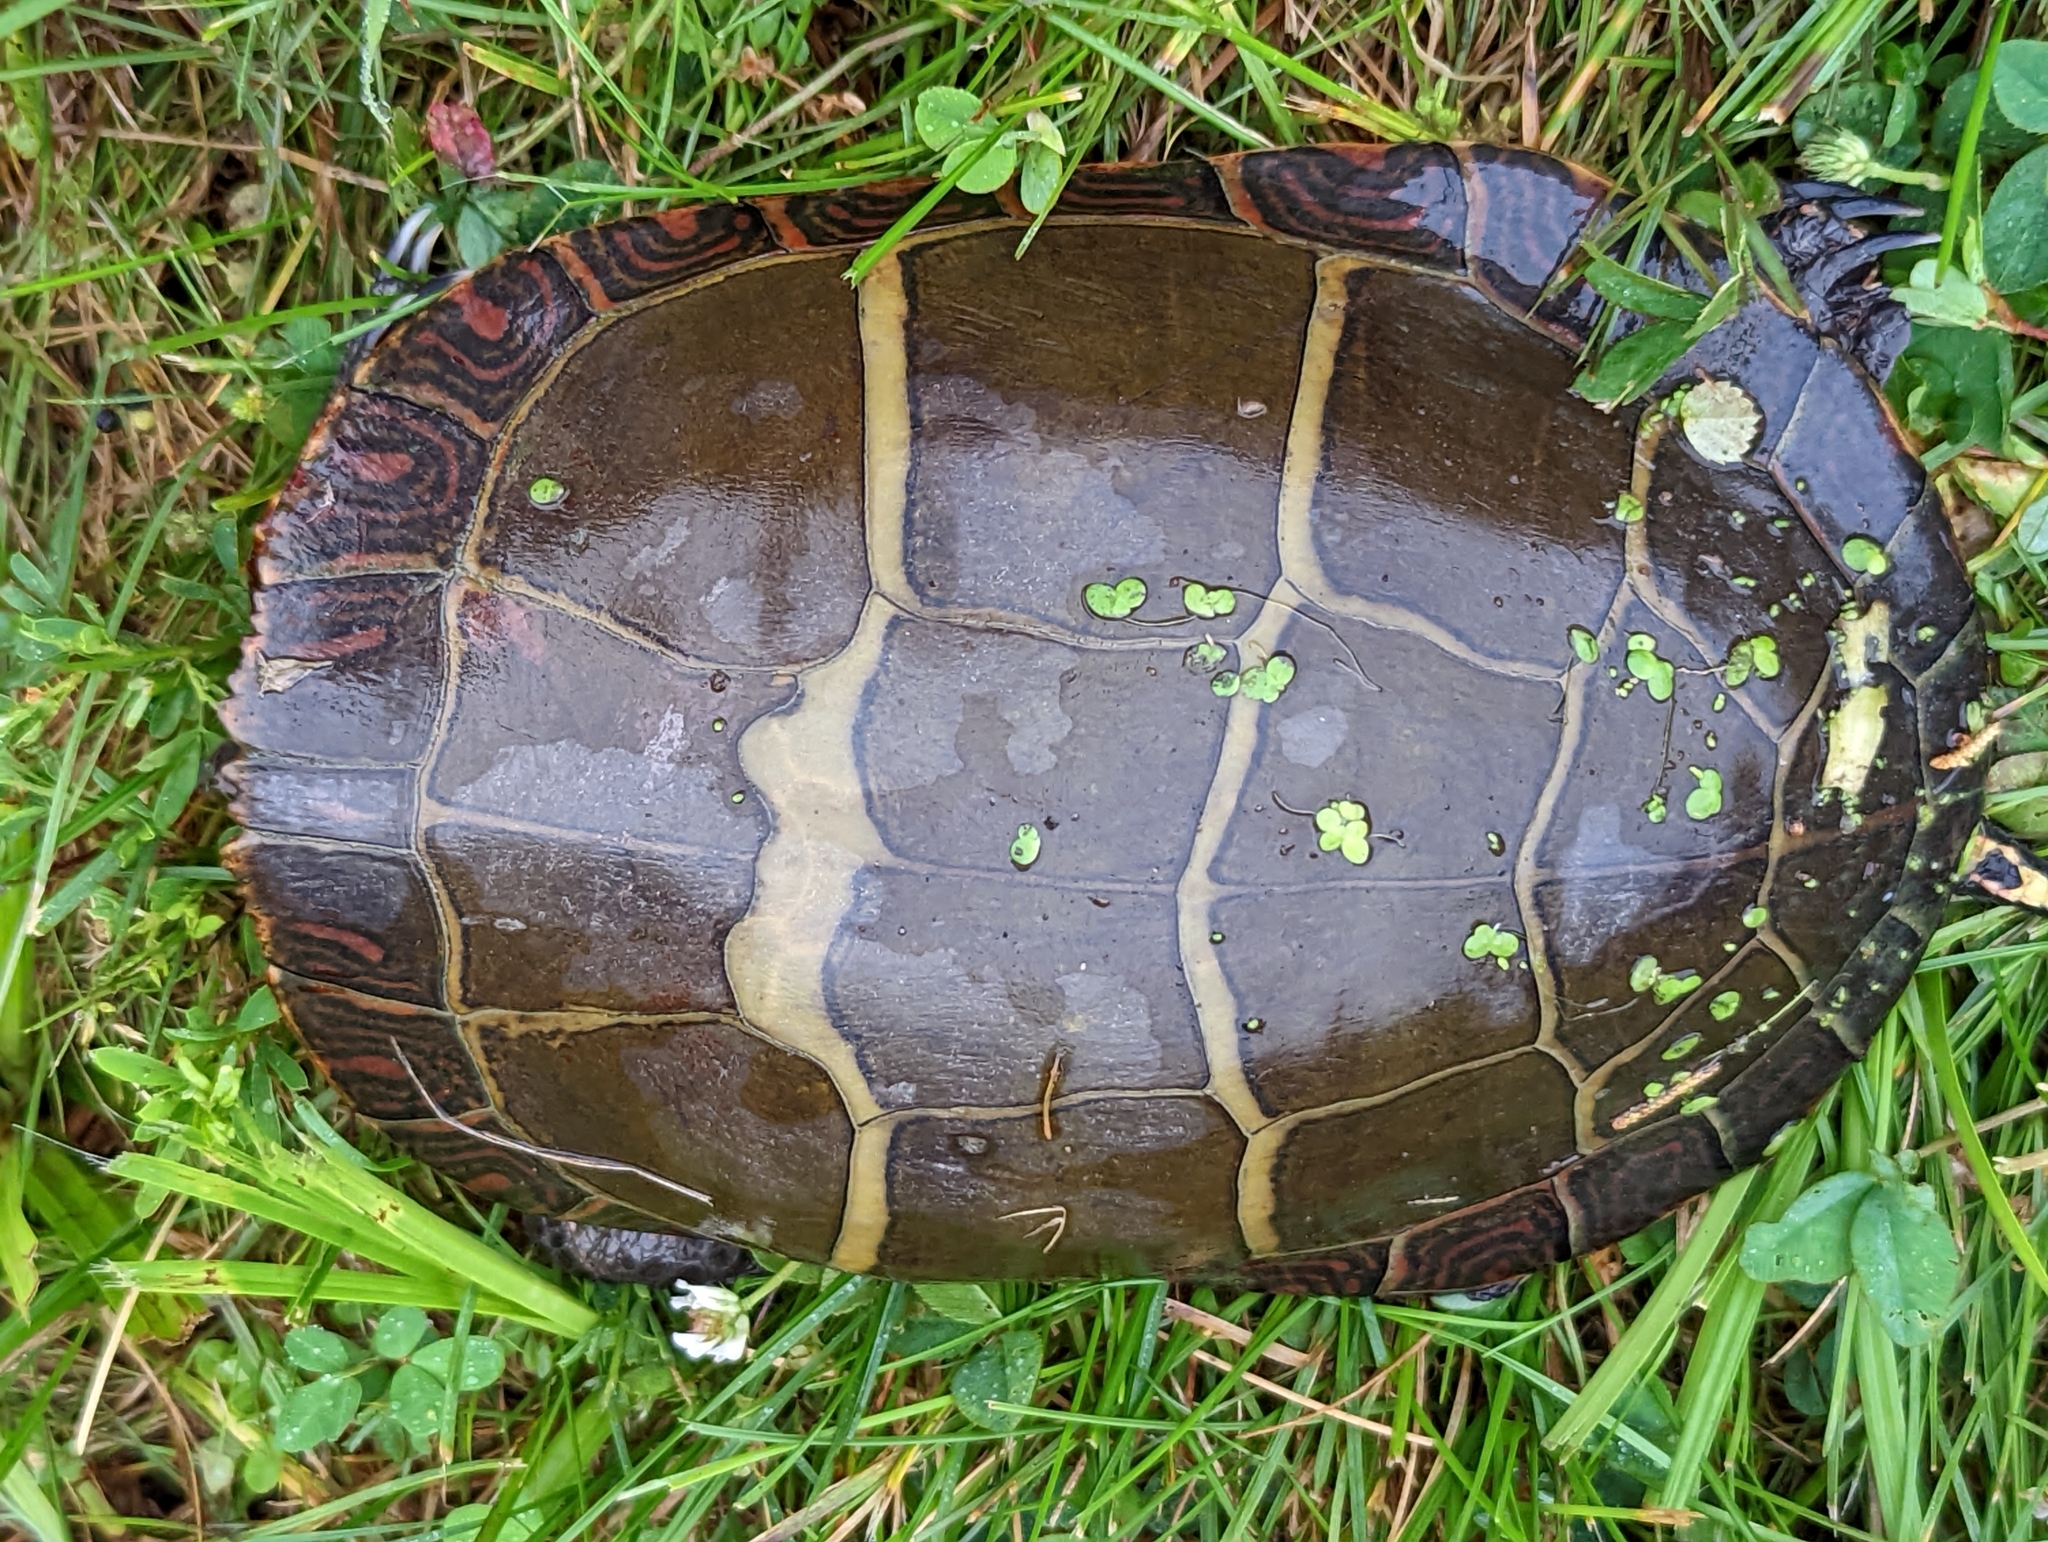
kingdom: Animalia
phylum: Chordata
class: Testudines
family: Emydidae
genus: Chrysemys
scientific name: Chrysemys picta
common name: Painted turtle
